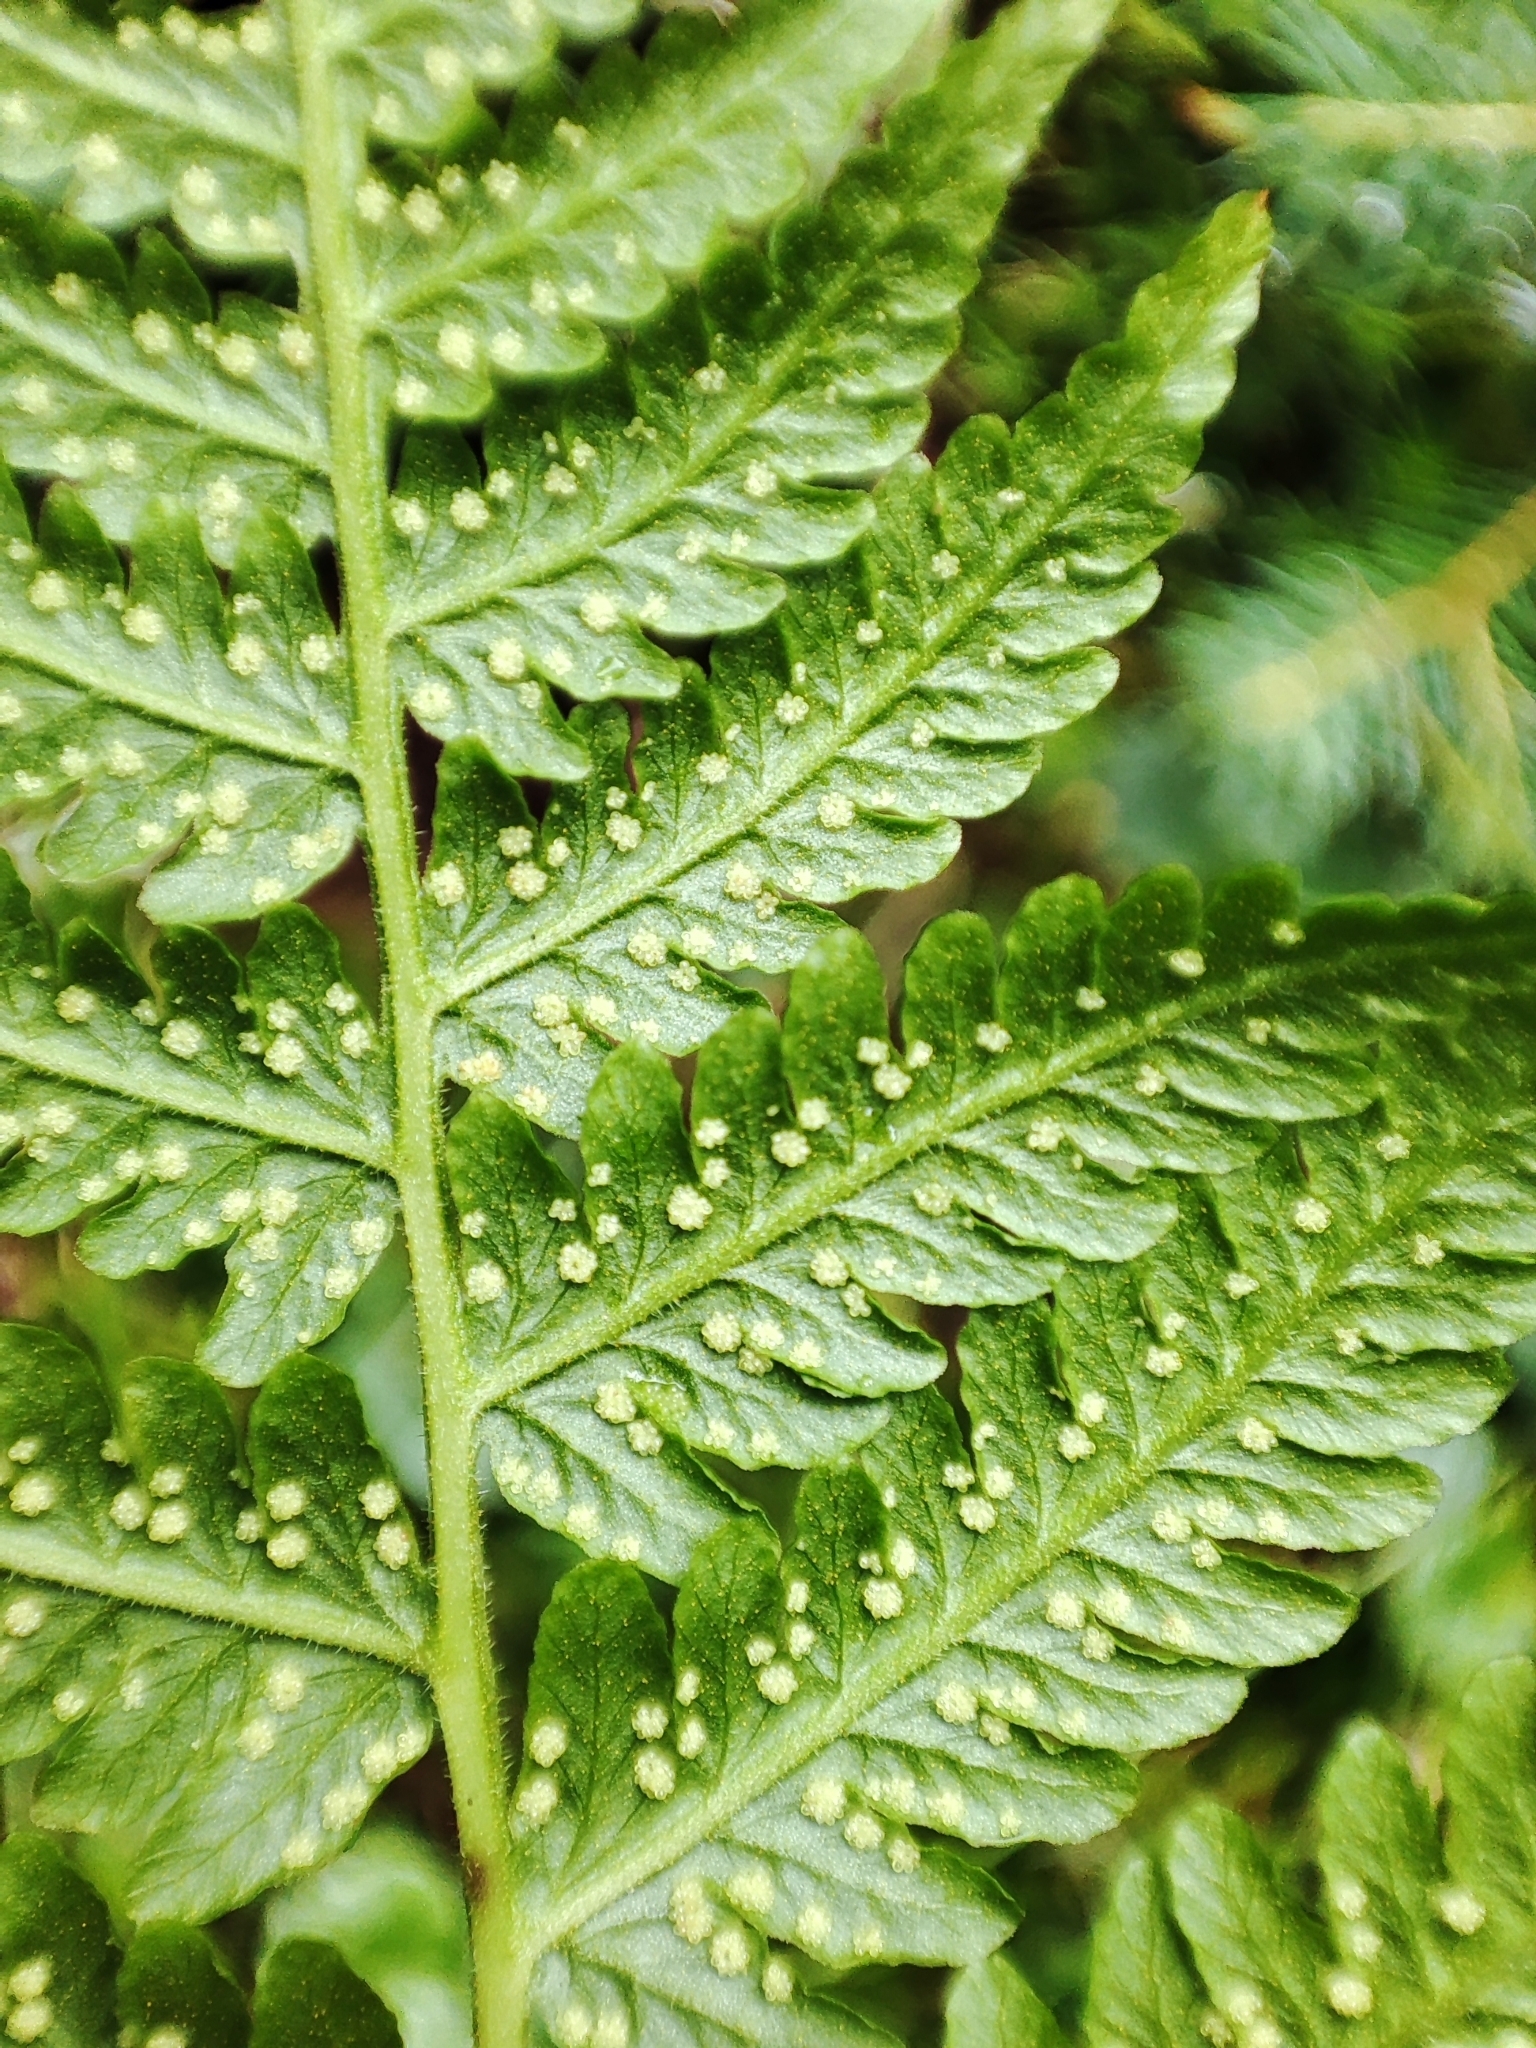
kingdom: Plantae
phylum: Tracheophyta
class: Polypodiopsida
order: Polypodiales
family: Thelypteridaceae
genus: Oreopteris
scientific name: Oreopteris limbosperma
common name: Lemon-scented fern
